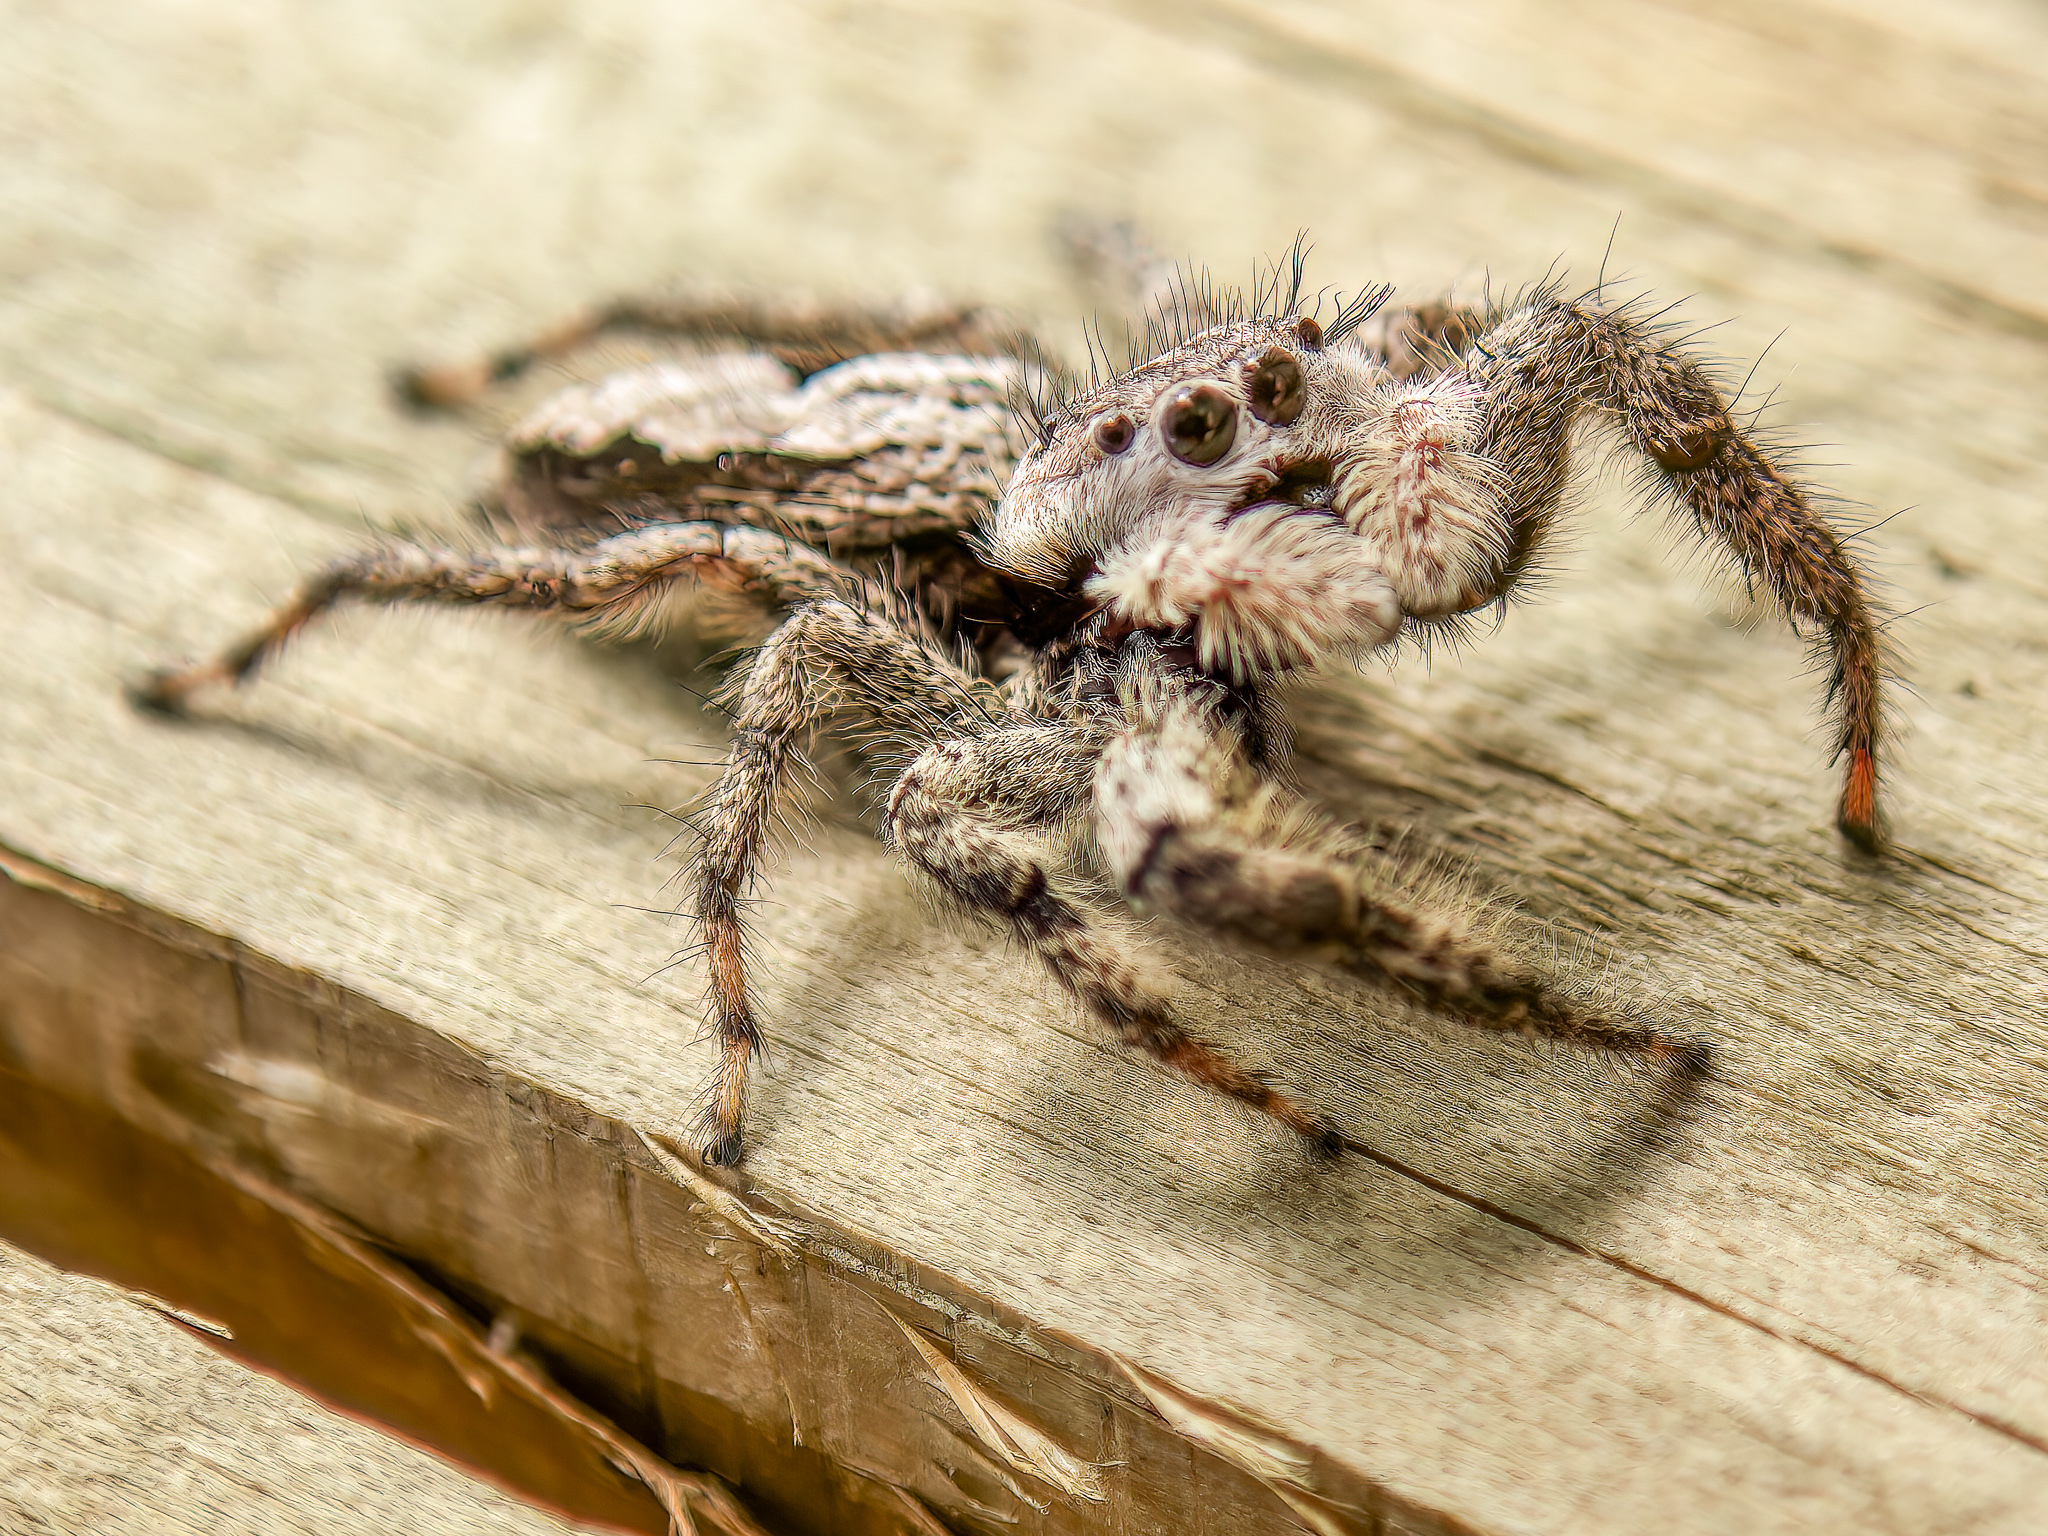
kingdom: Animalia
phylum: Arthropoda
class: Arachnida
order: Araneae
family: Salticidae
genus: Platycryptus
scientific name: Platycryptus undatus
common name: Tan jumping spider
